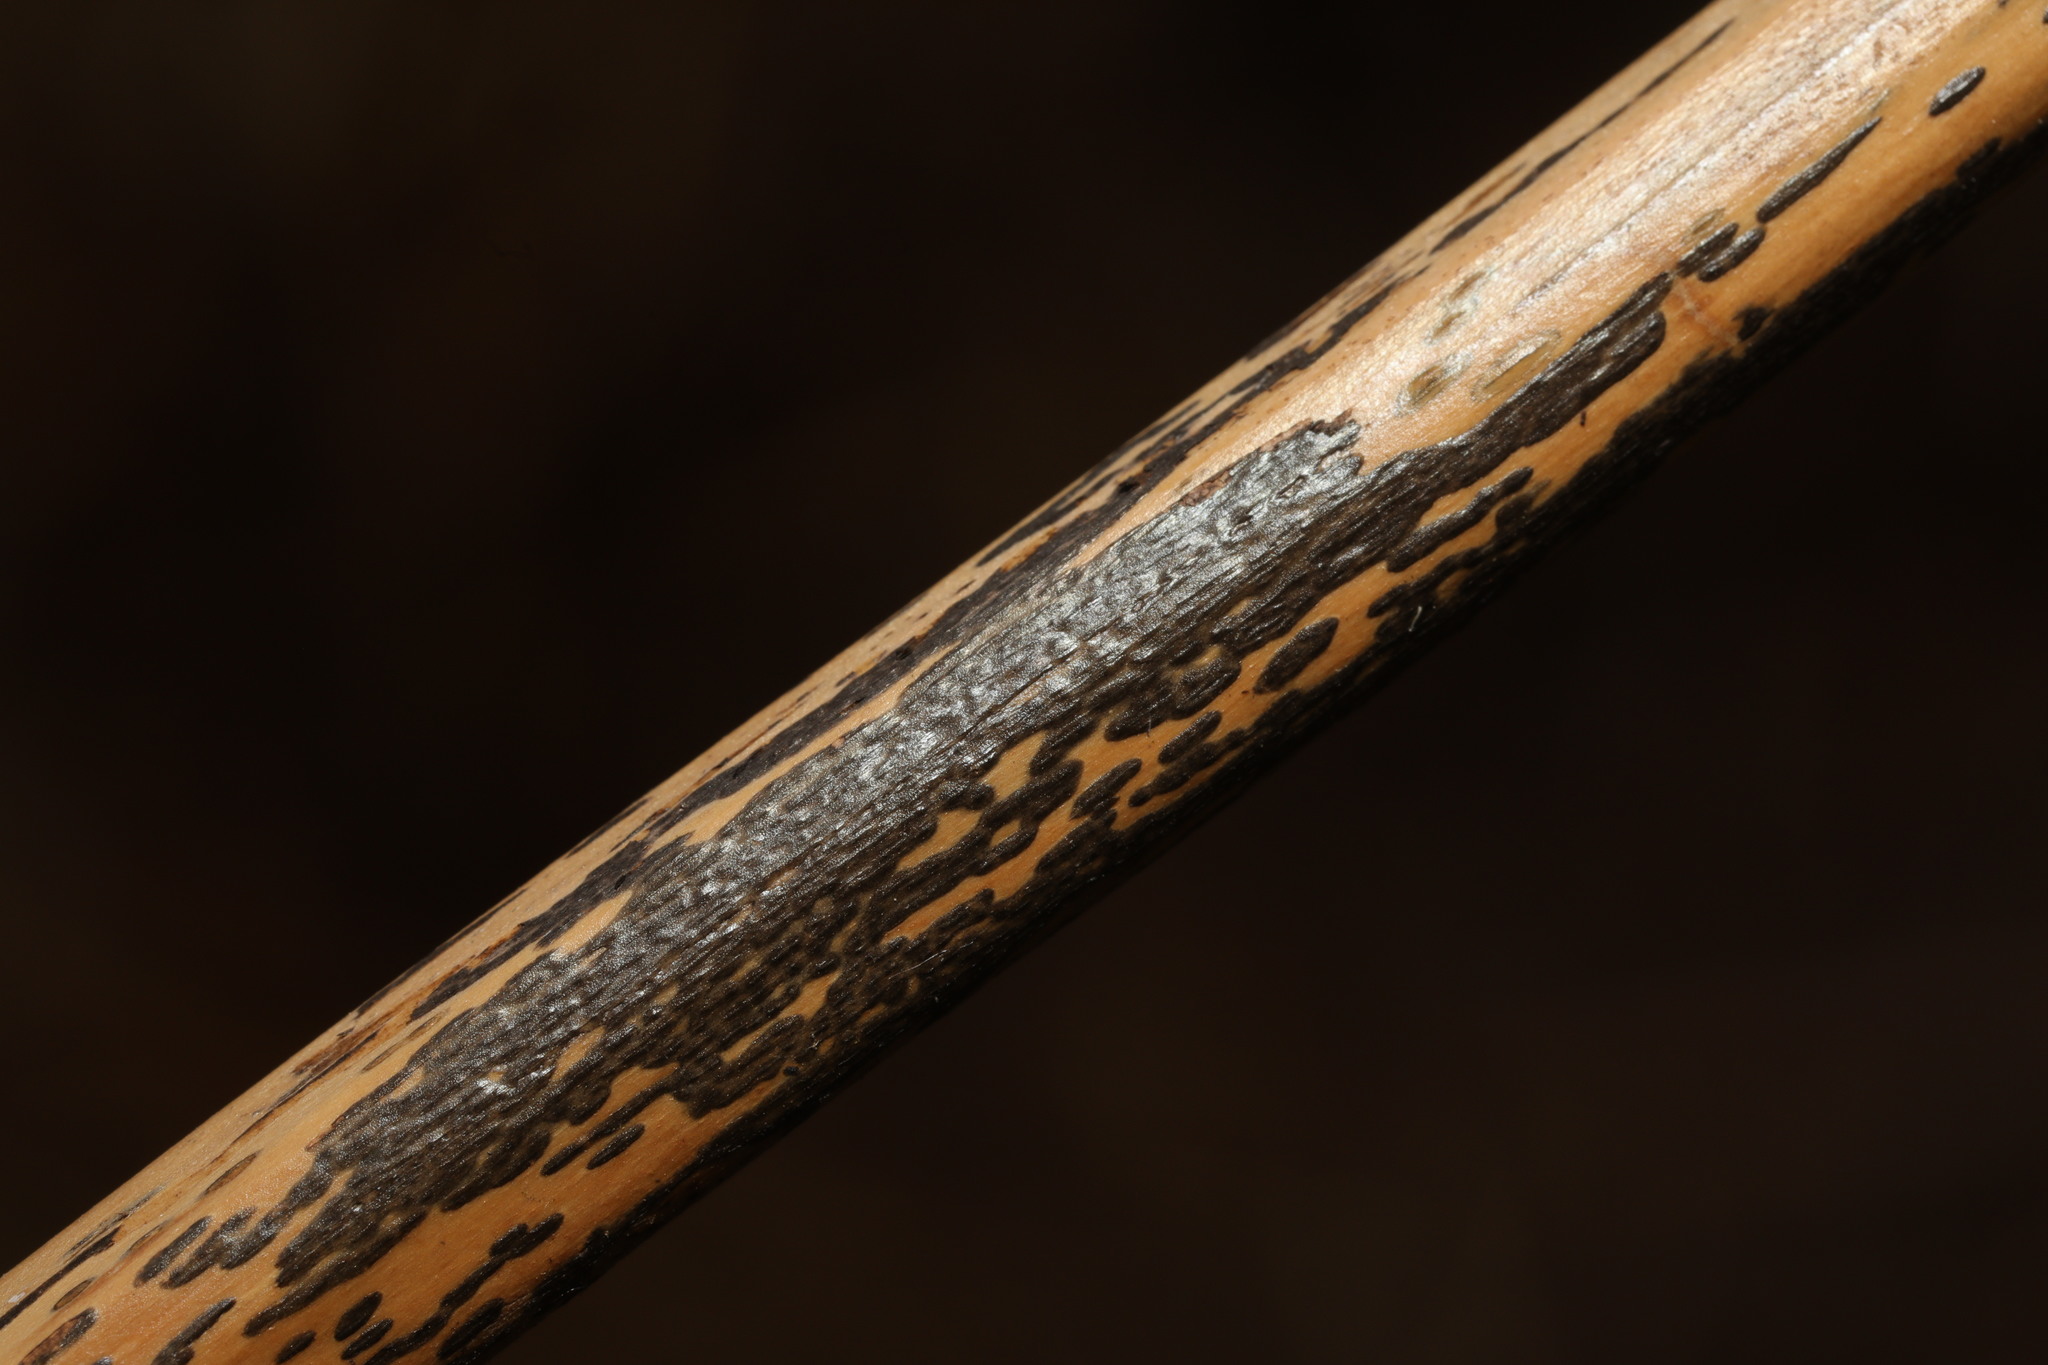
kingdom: Fungi
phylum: Ascomycota
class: Dothideomycetes
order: Pleosporales
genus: Rhopographus
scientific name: Rhopographus filicinus
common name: Bracken map
